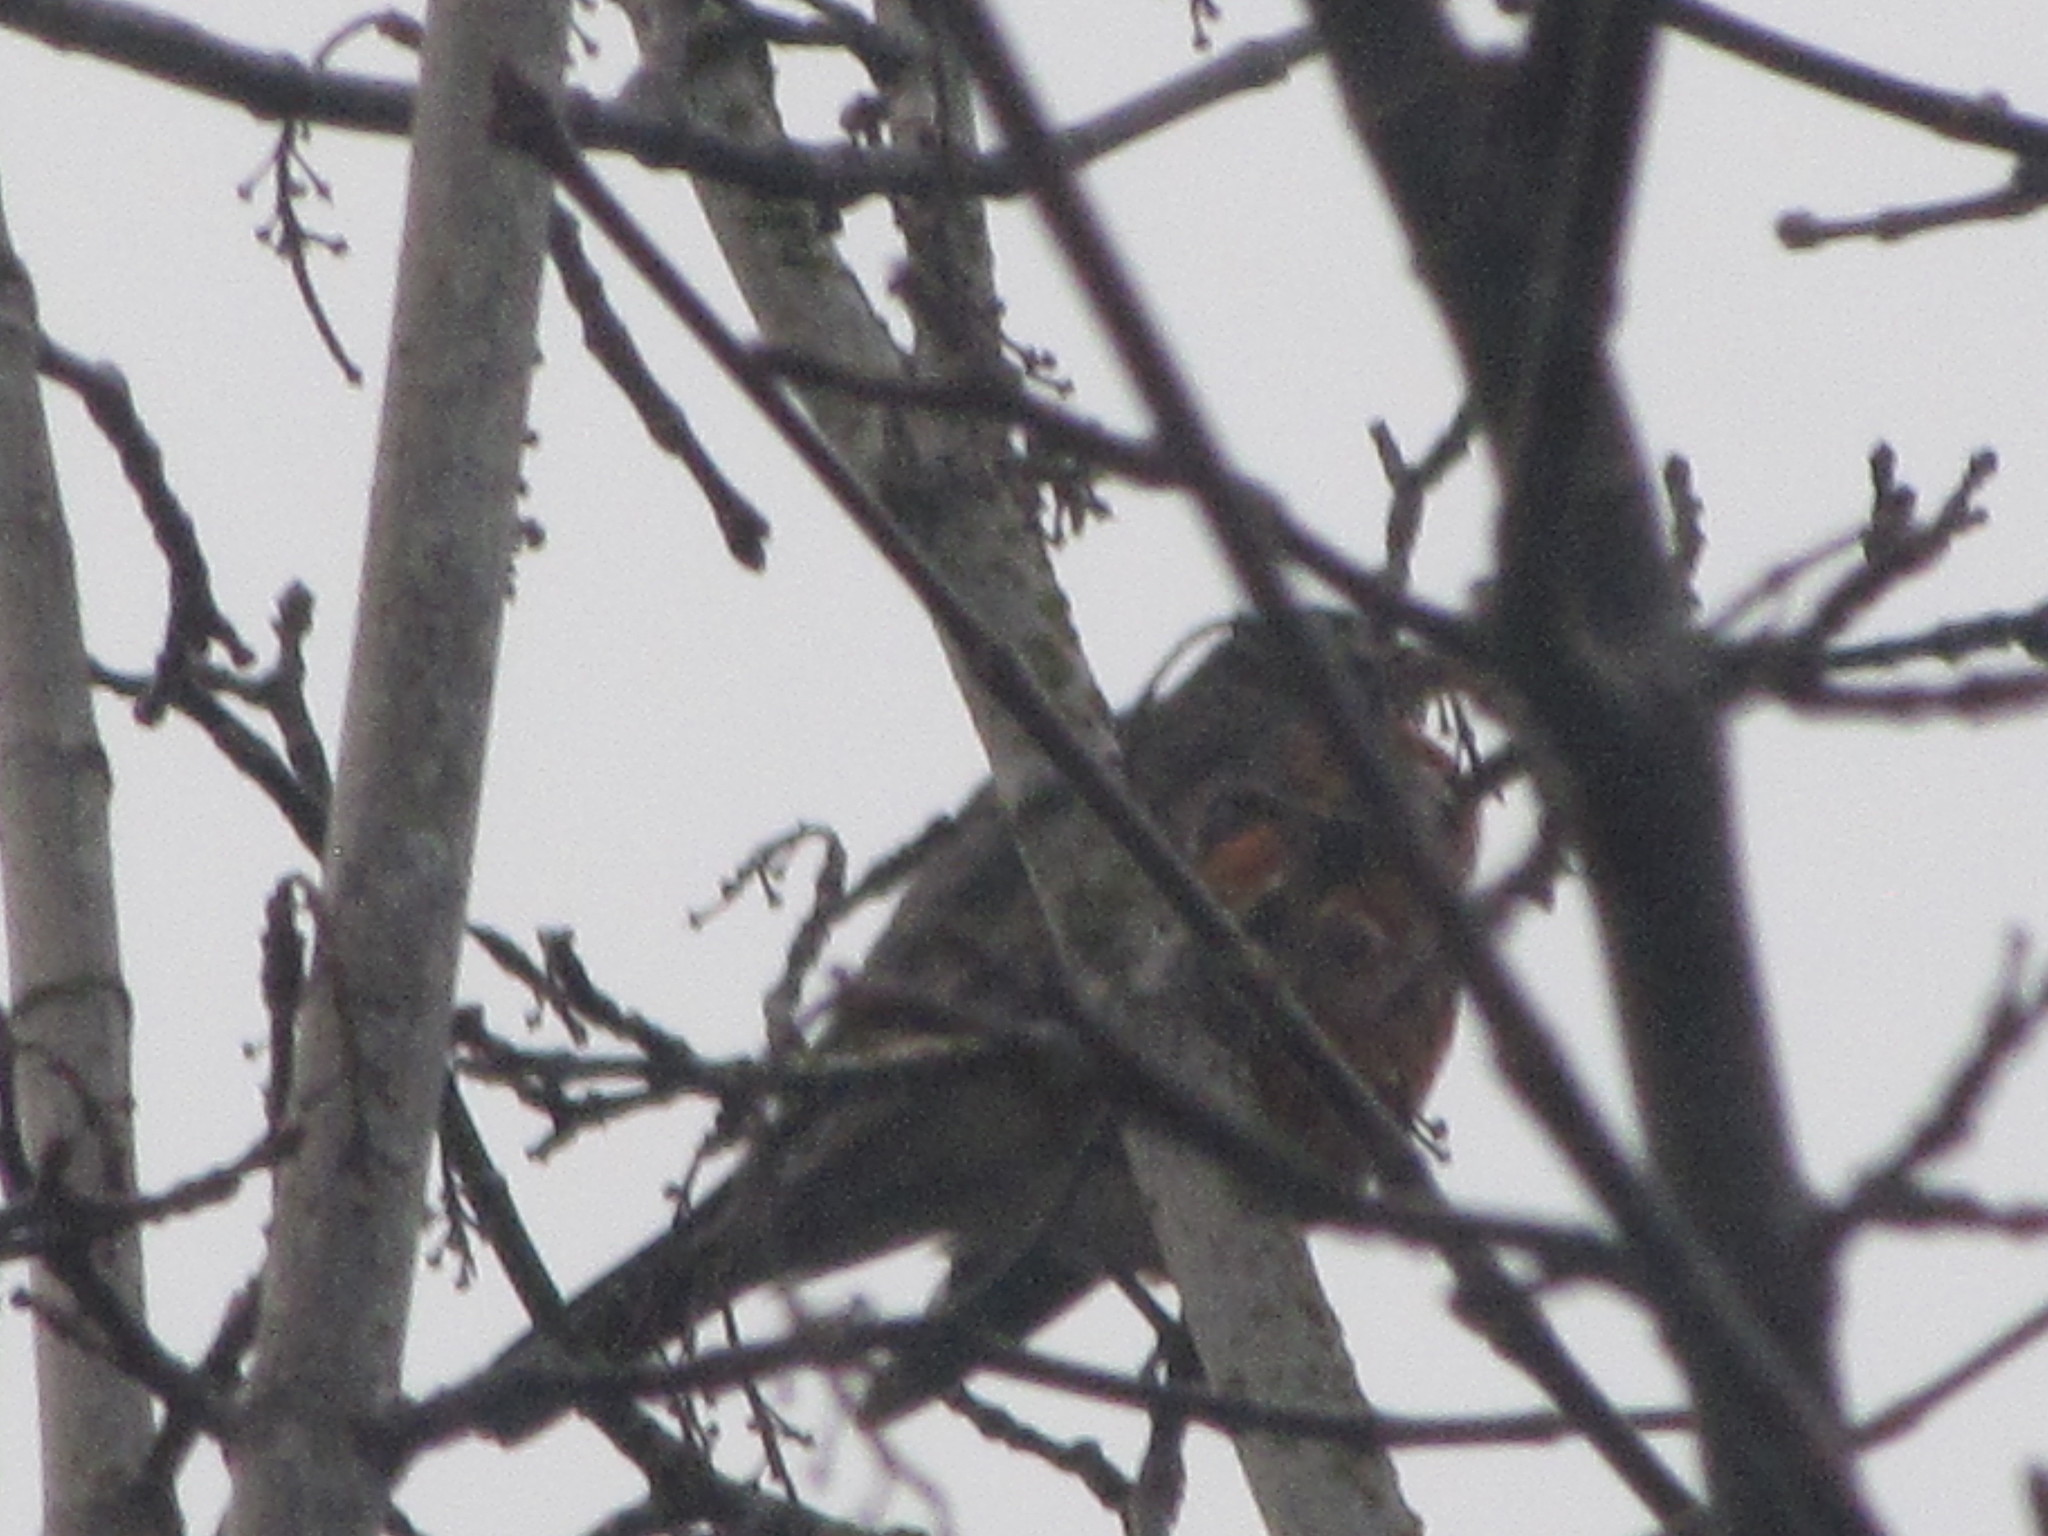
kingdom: Animalia
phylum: Chordata
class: Aves
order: Passeriformes
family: Turdidae
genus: Turdus
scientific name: Turdus migratorius
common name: American robin
